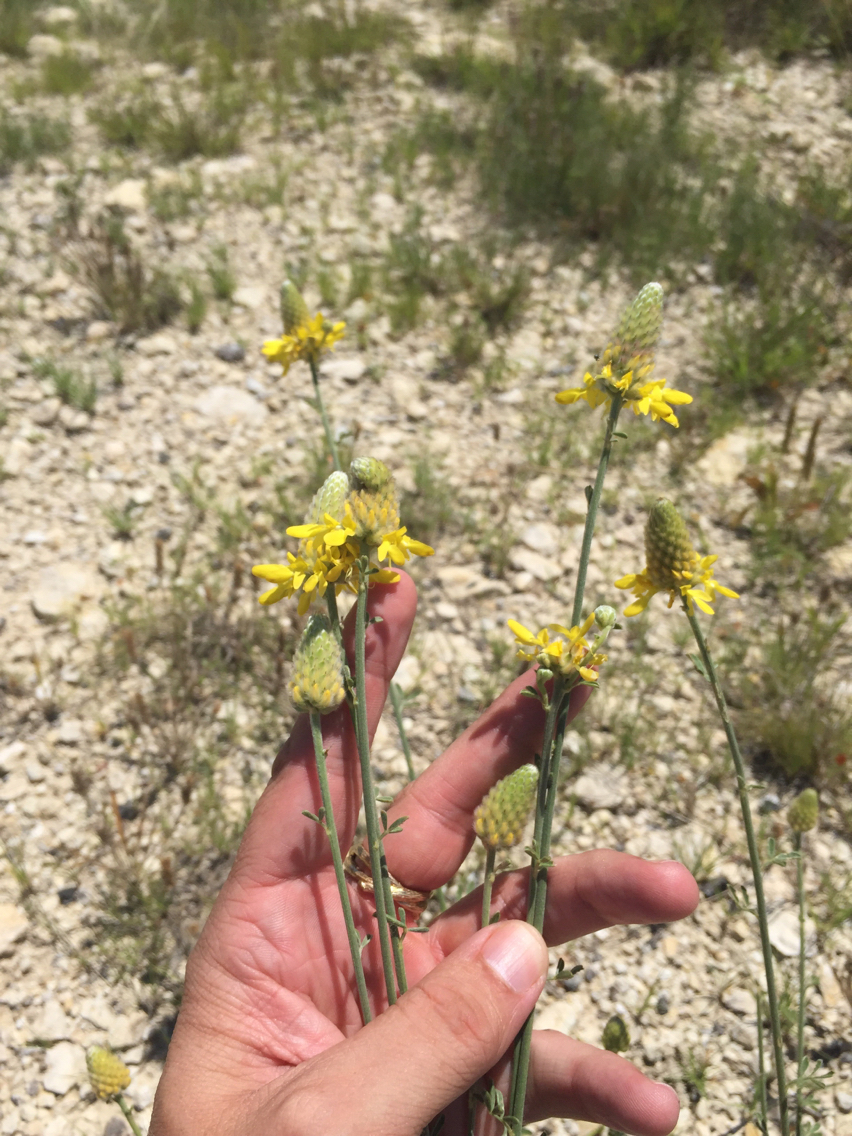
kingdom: Plantae
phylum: Tracheophyta
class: Magnoliopsida
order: Fabales
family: Fabaceae
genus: Dalea
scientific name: Dalea aurea
